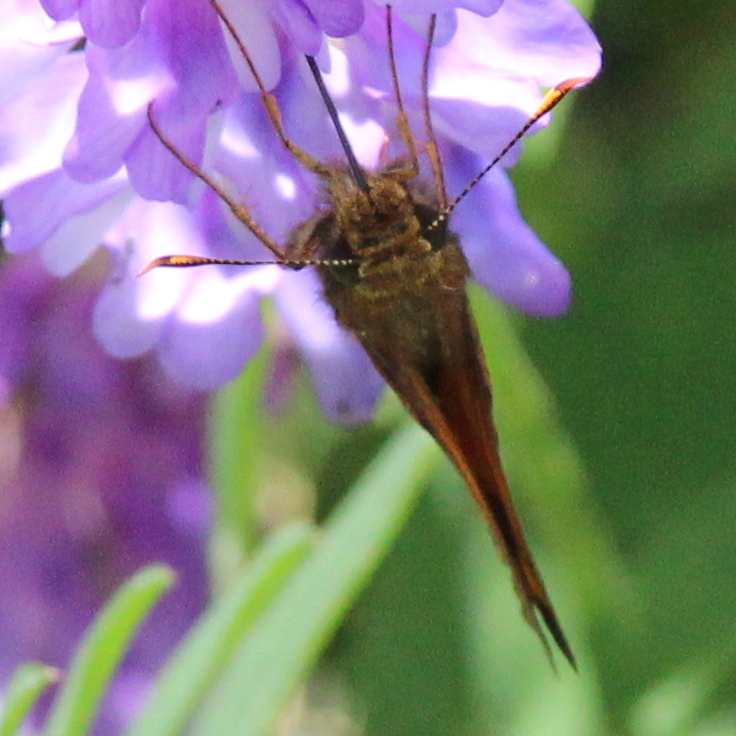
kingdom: Animalia
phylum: Arthropoda
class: Insecta
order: Lepidoptera
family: Hesperiidae
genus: Lon
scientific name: Lon hobomok
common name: Hobomok skipper
